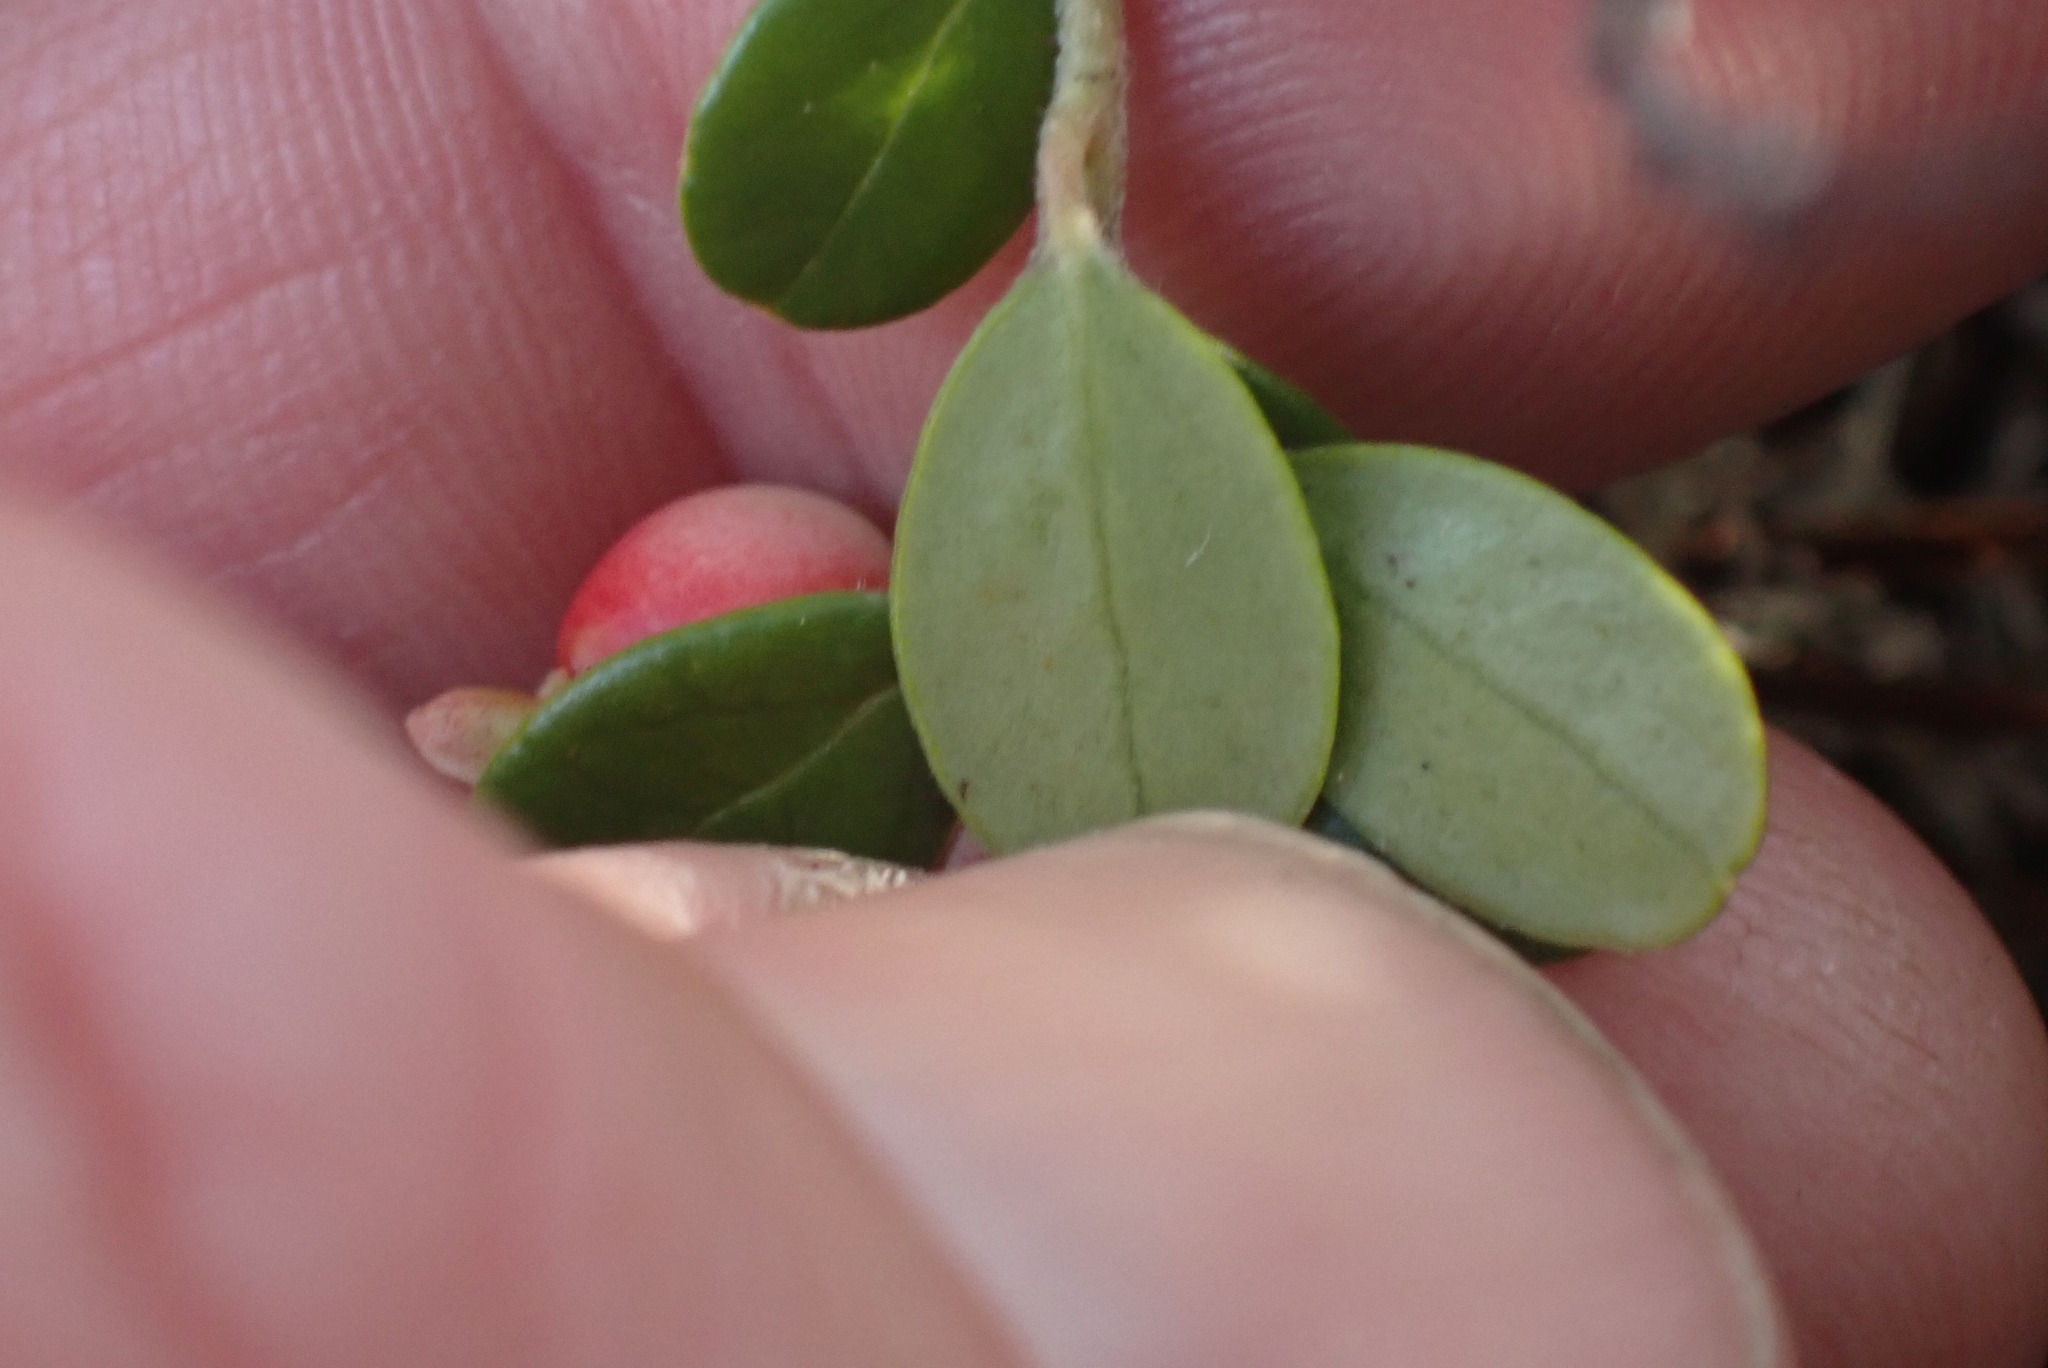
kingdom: Plantae
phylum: Tracheophyta
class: Magnoliopsida
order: Ericales
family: Ericaceae
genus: Vaccinium
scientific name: Vaccinium vitis-idaea
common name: Cowberry
